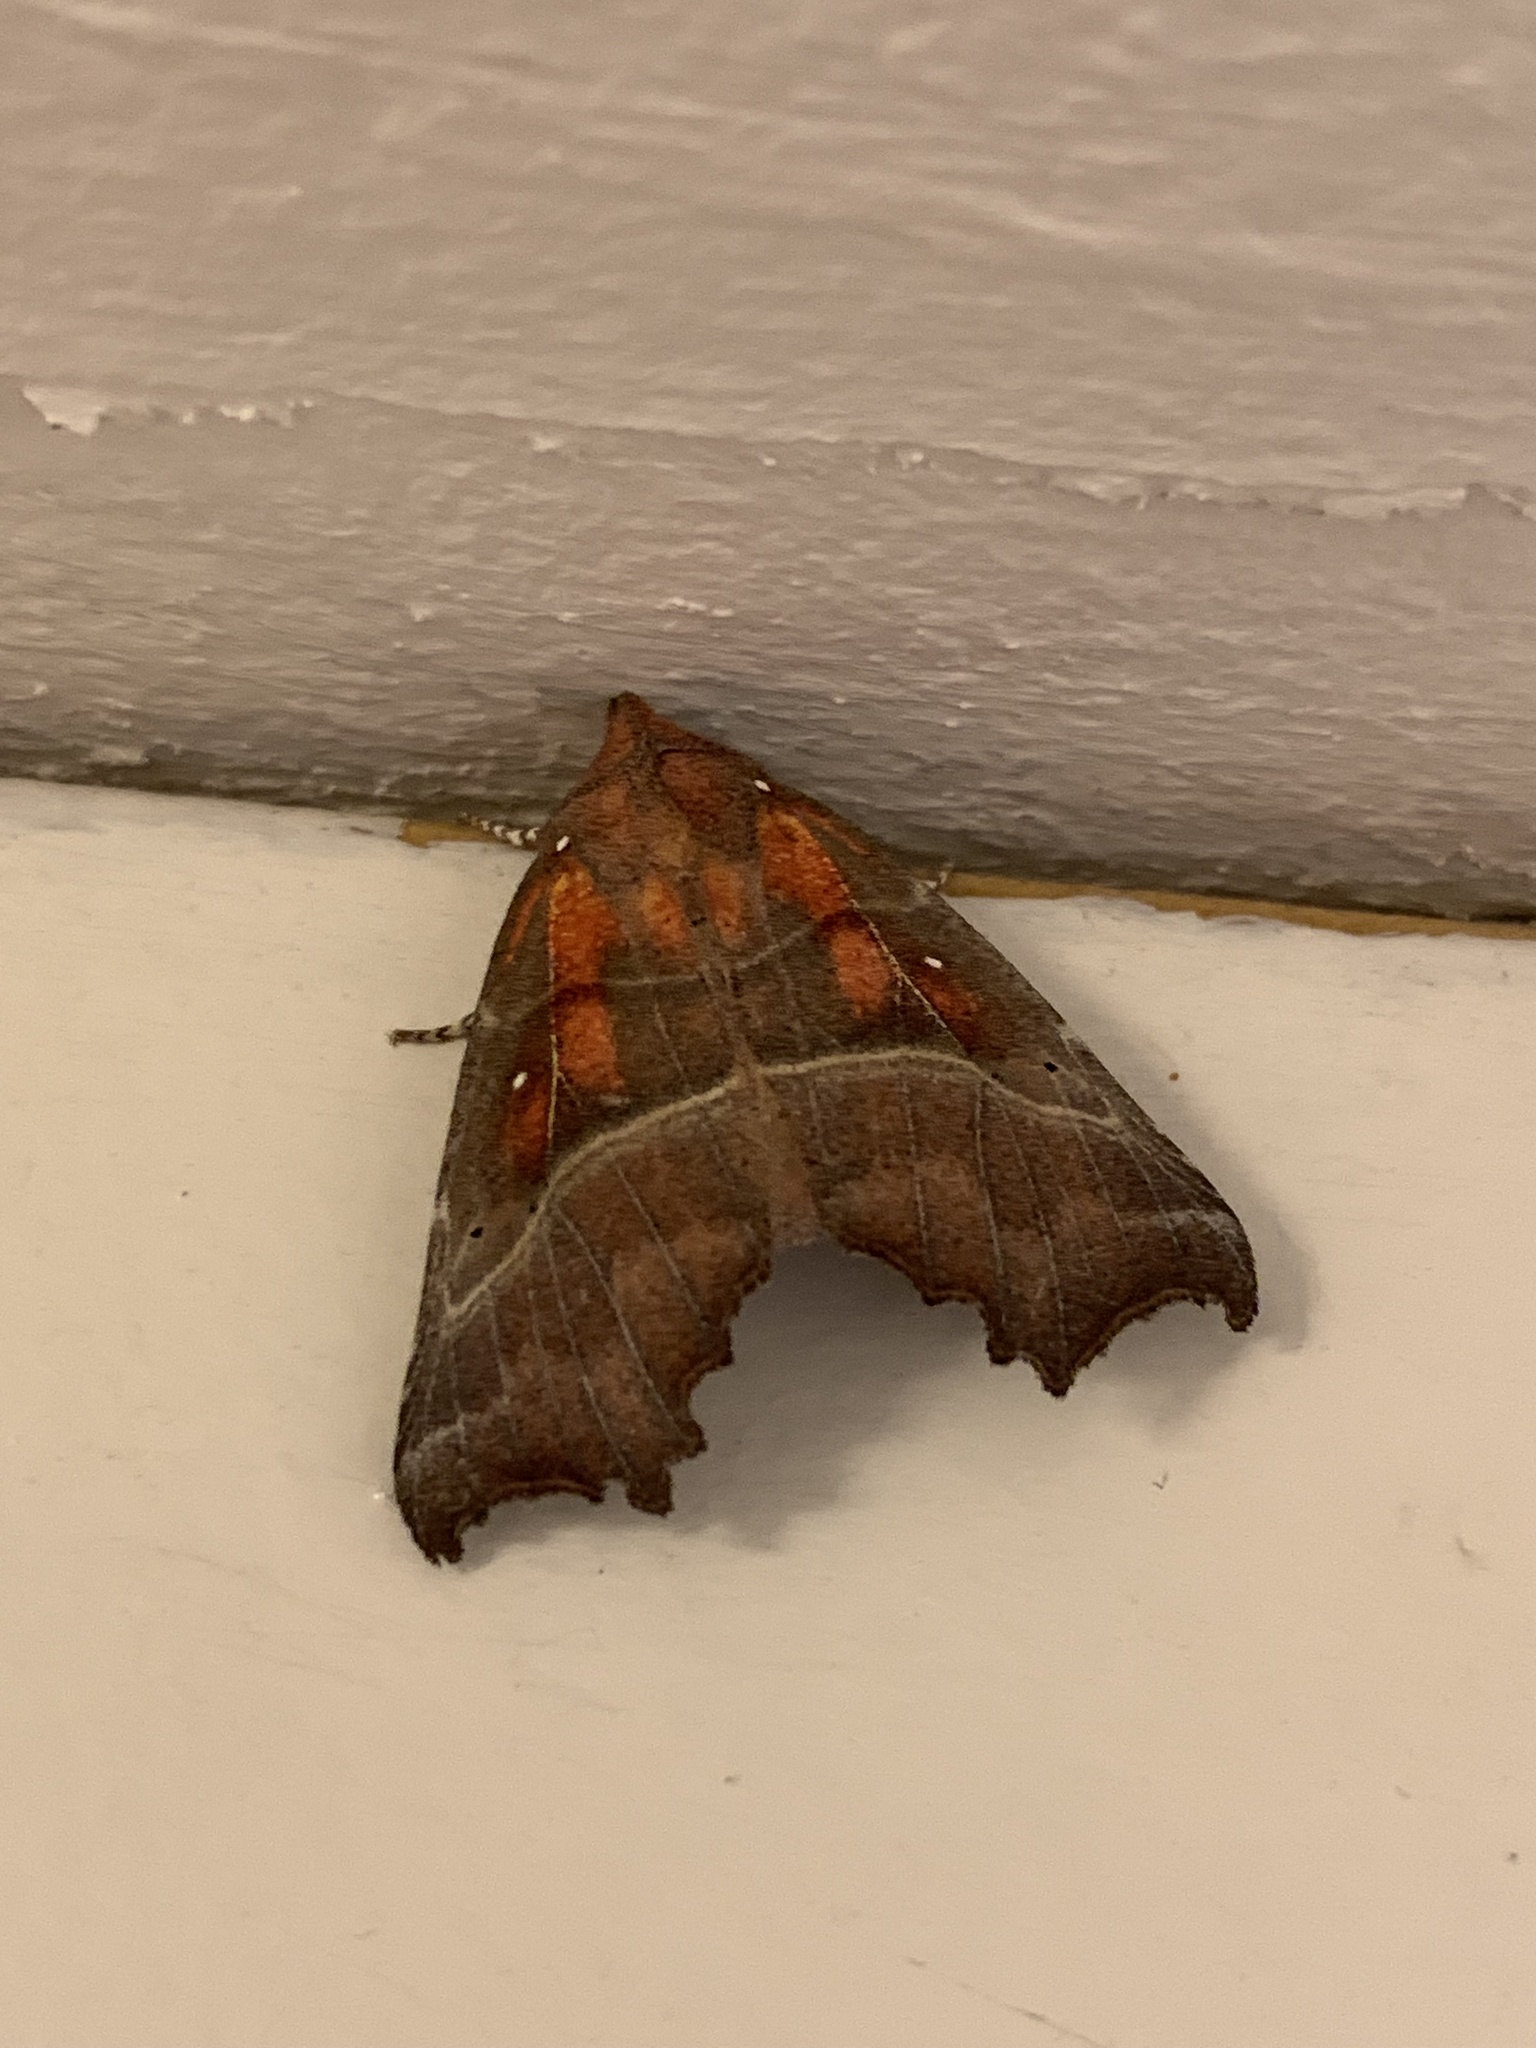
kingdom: Animalia
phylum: Arthropoda
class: Insecta
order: Lepidoptera
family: Erebidae
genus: Scoliopteryx
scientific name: Scoliopteryx libatrix
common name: Herald
